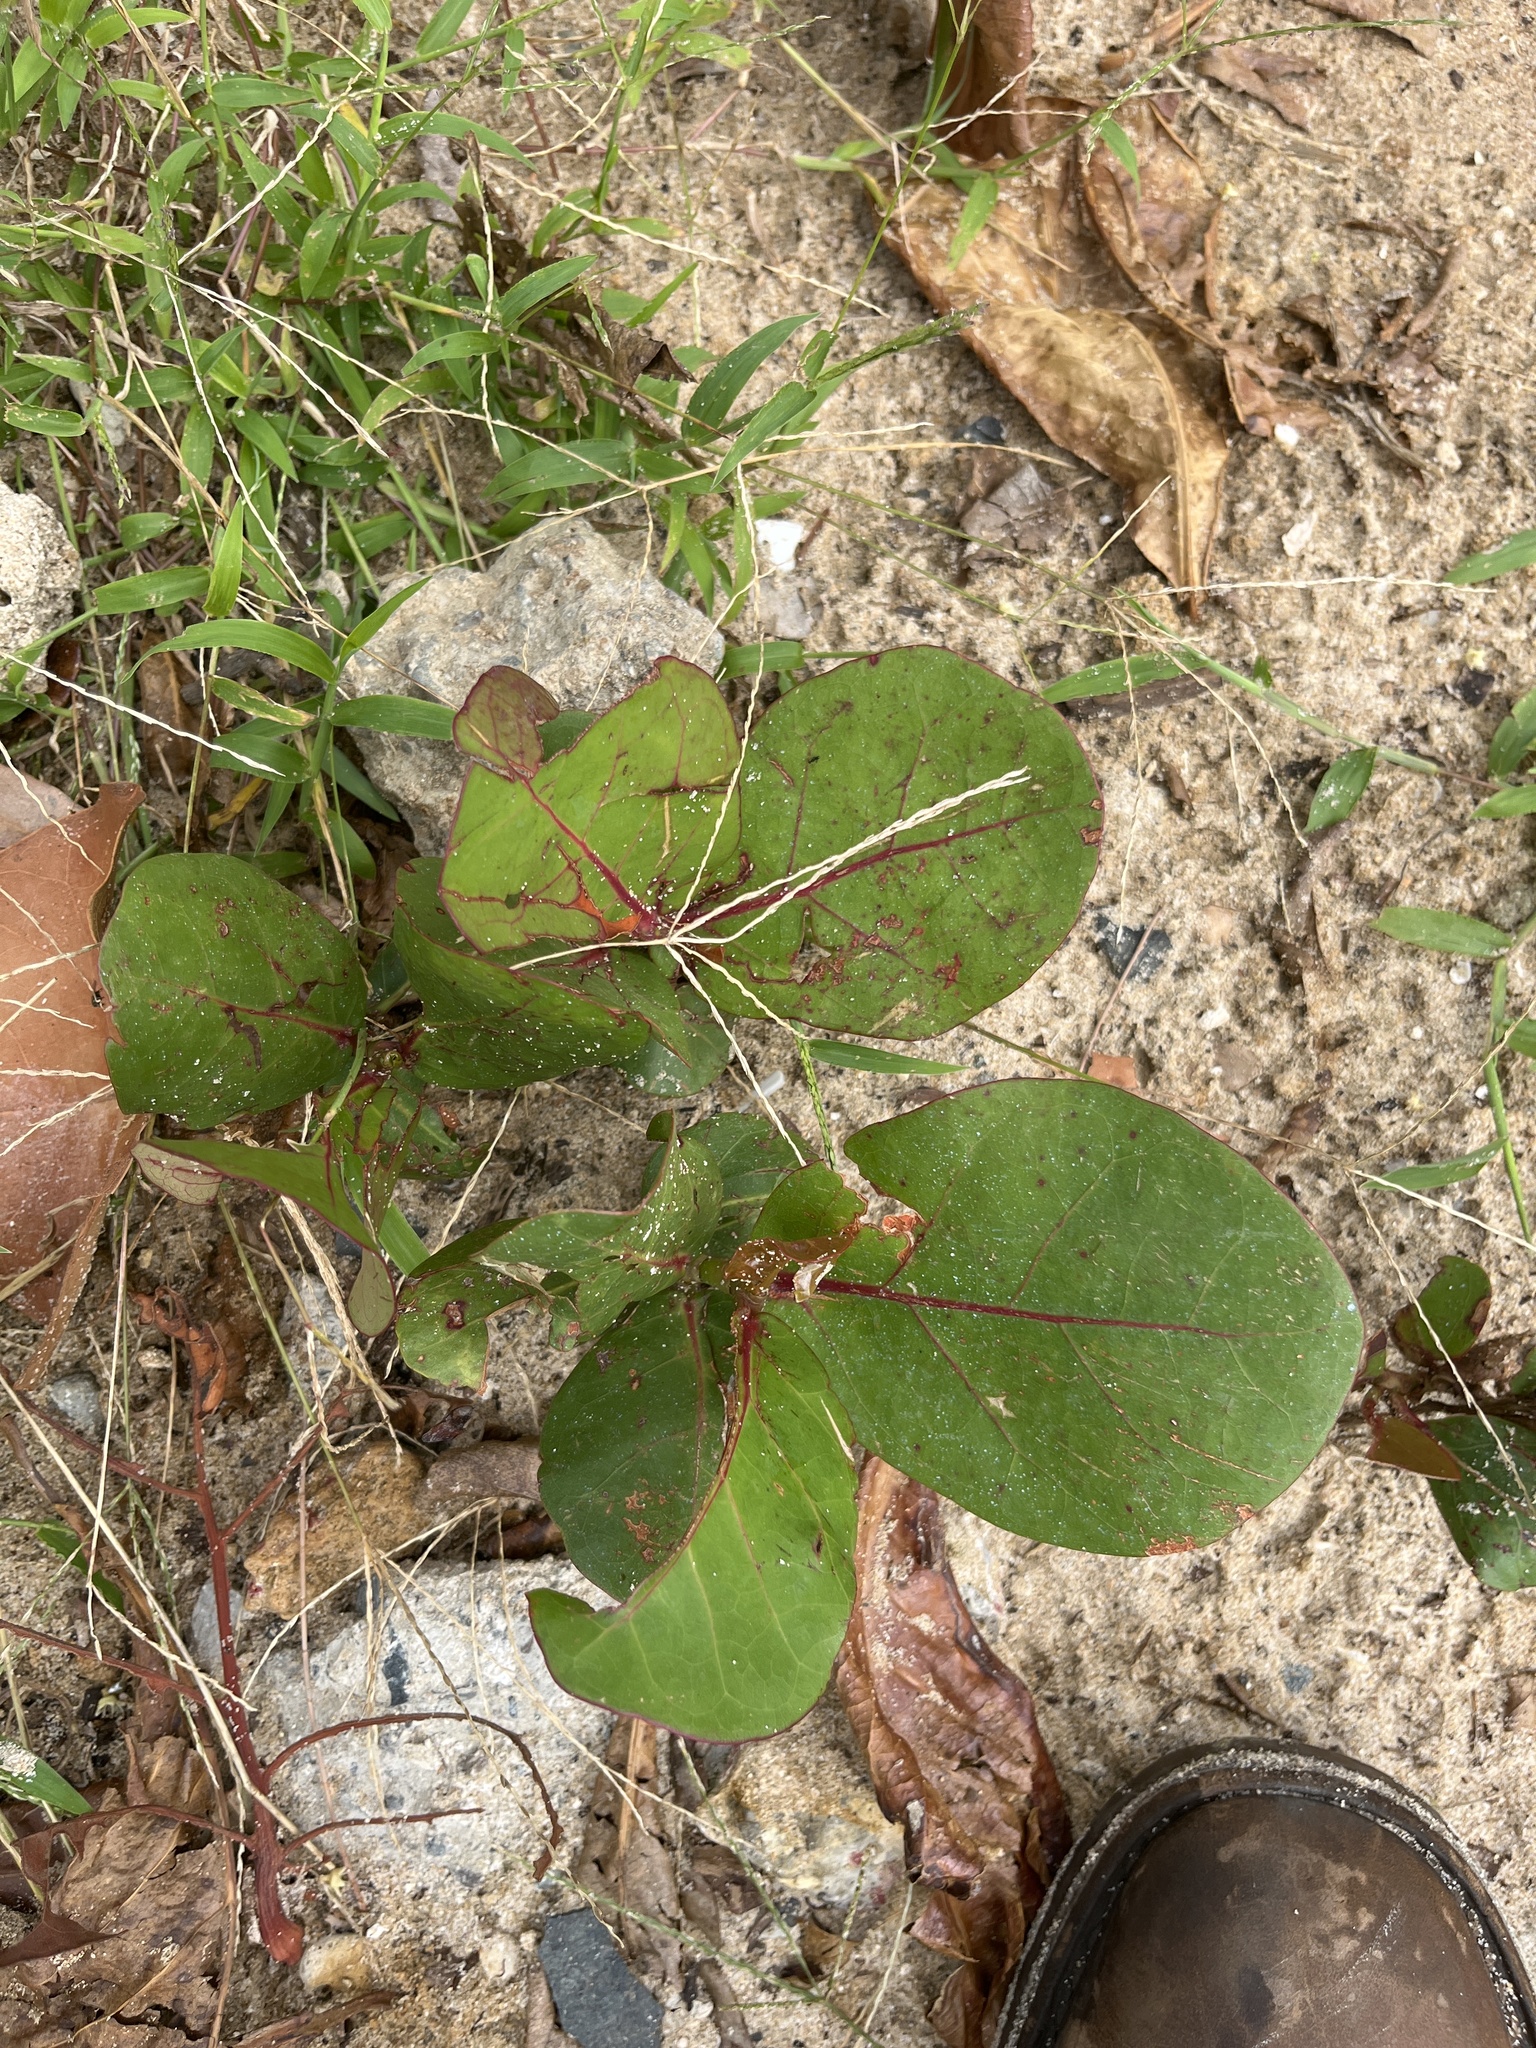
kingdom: Plantae
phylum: Tracheophyta
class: Magnoliopsida
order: Caryophyllales
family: Polygonaceae
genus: Coccoloba
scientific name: Coccoloba uvifera
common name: Seagrape
